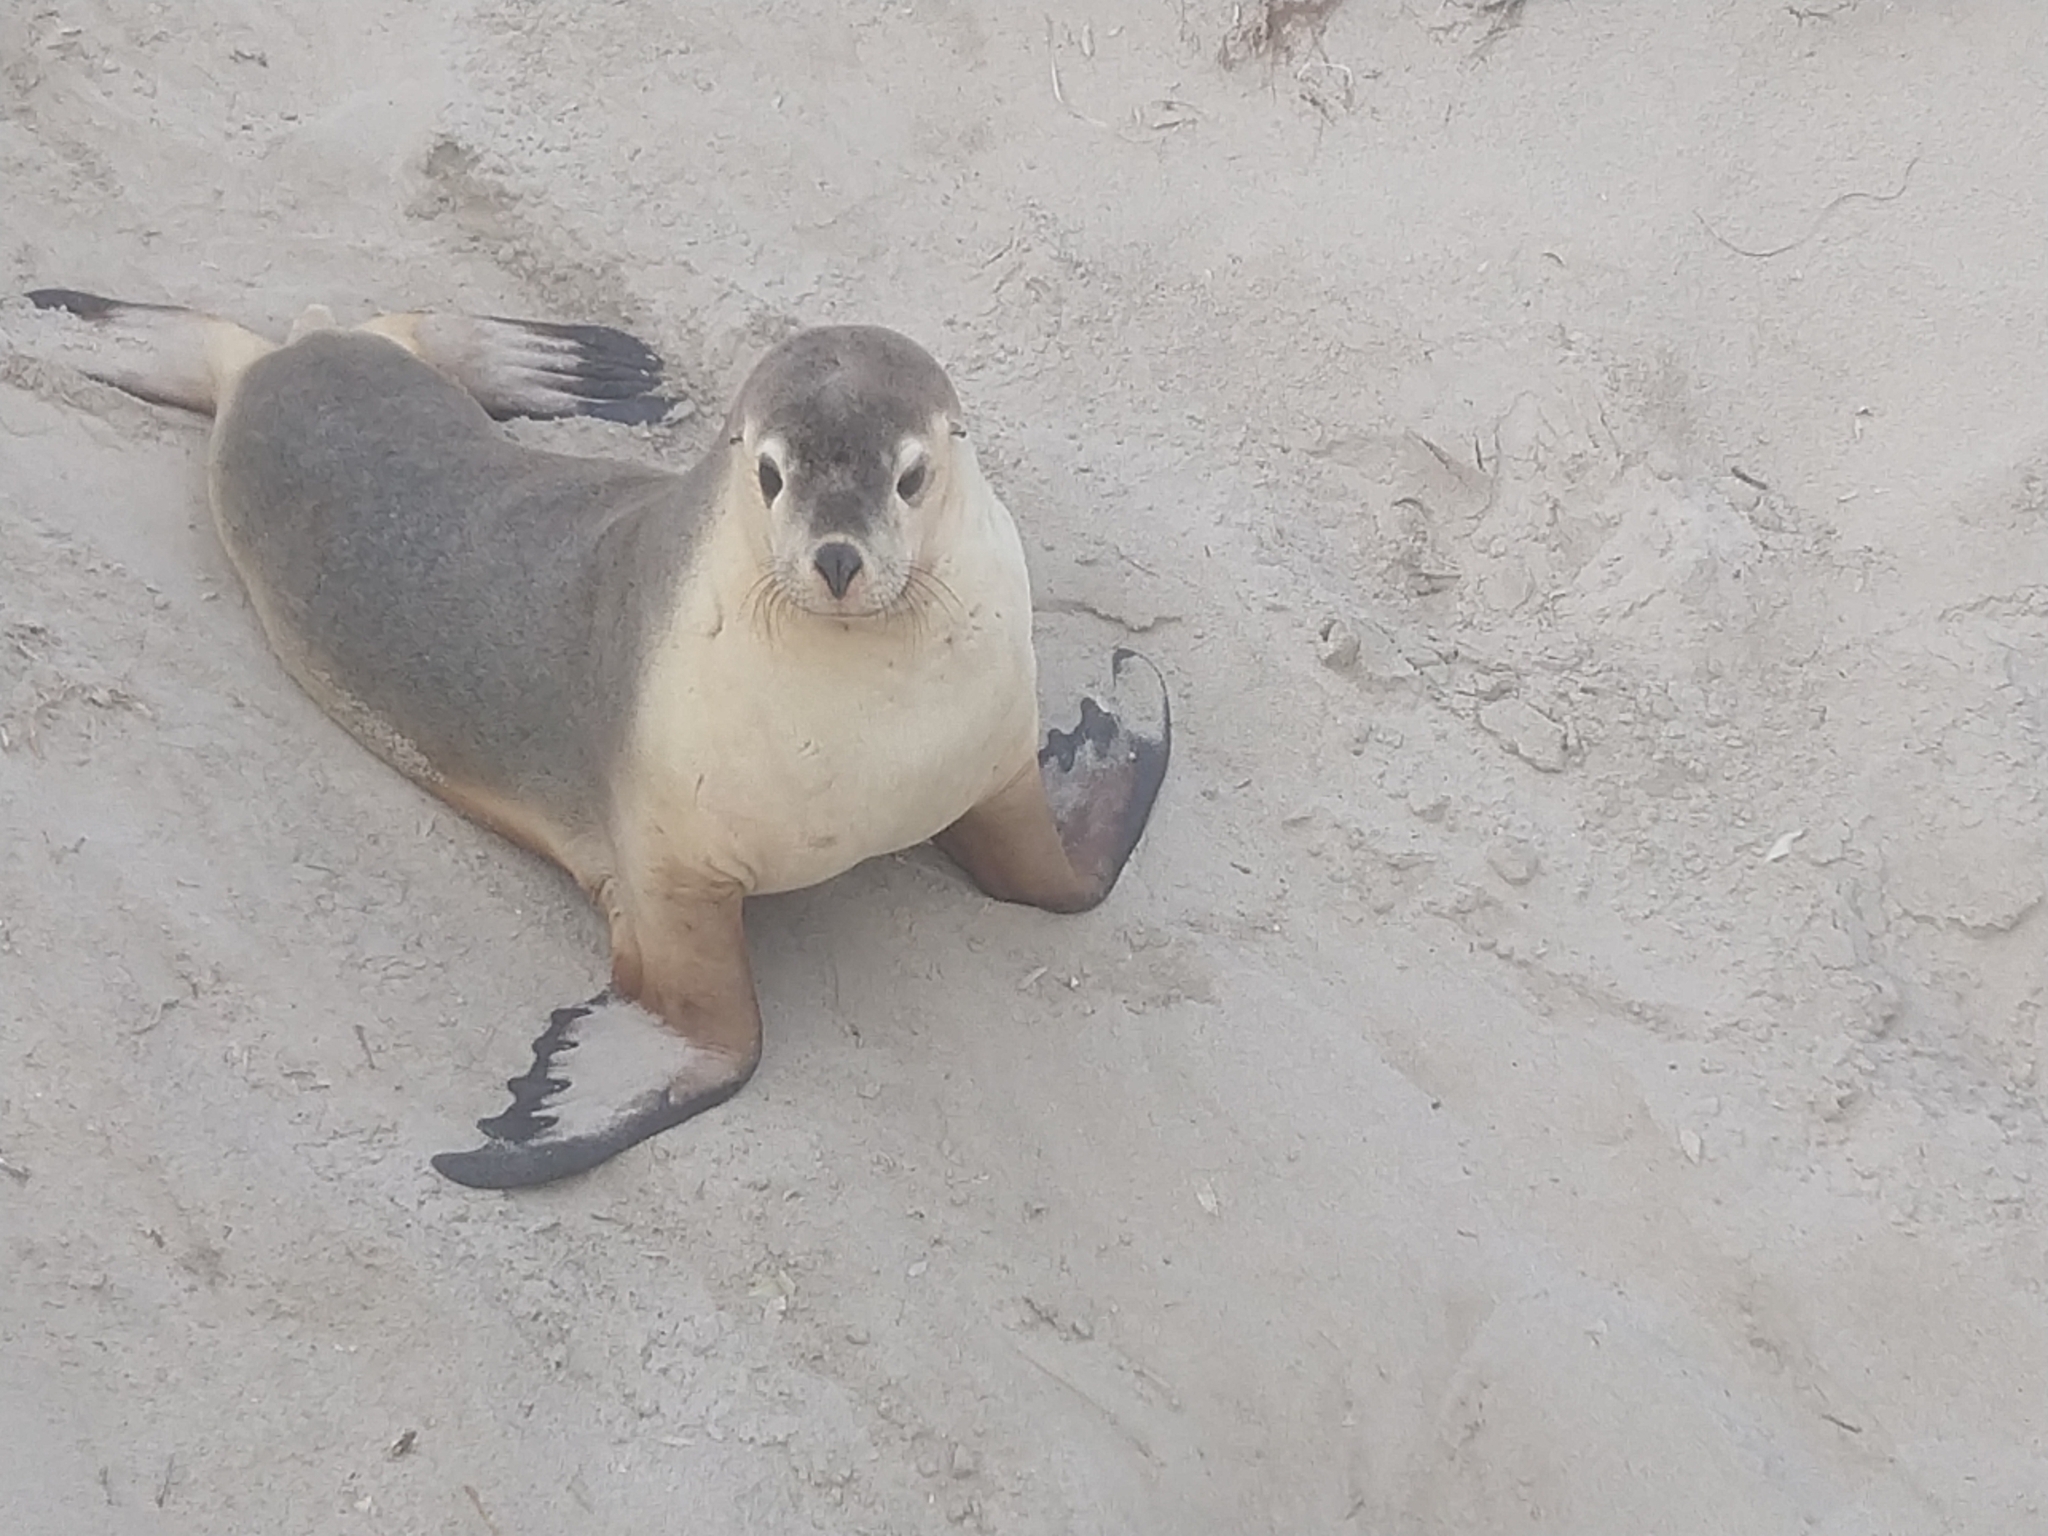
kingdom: Animalia
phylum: Chordata
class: Mammalia
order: Carnivora
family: Otariidae
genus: Neophoca
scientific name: Neophoca cinerea
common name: Australian sea lion
